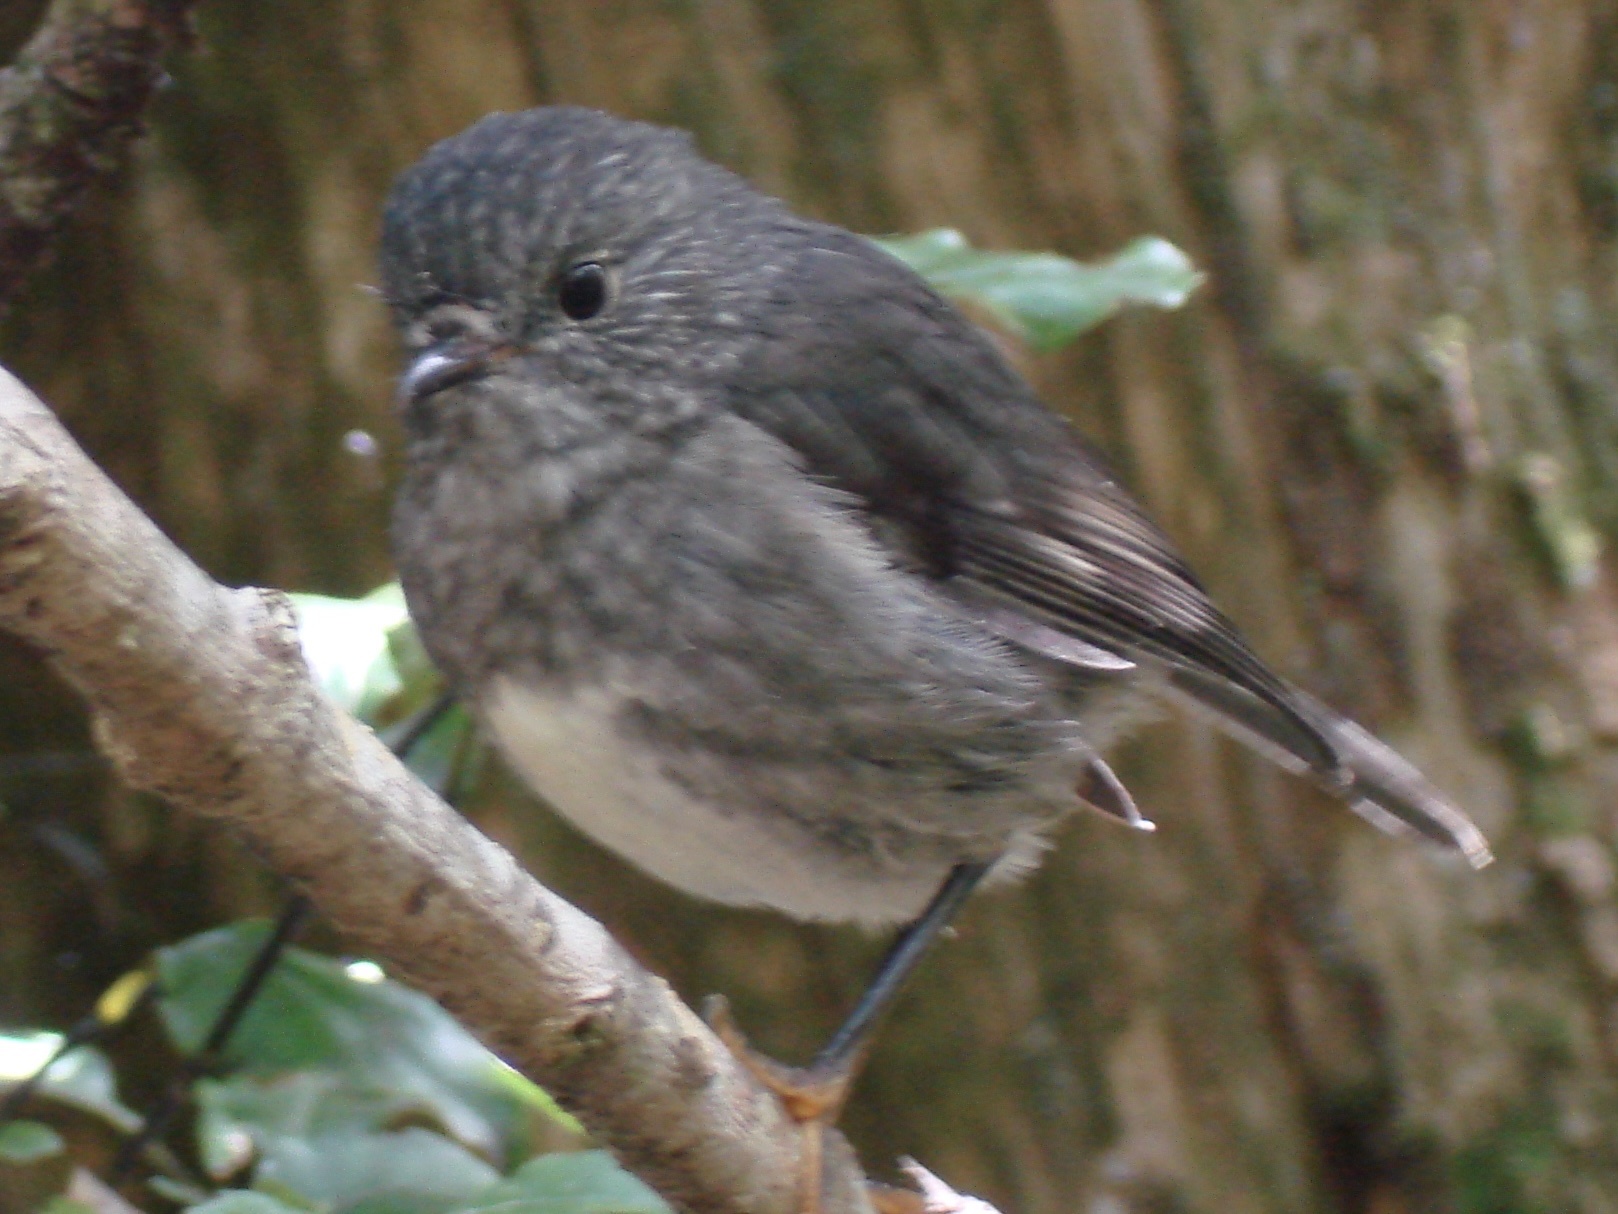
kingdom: Animalia
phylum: Chordata
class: Aves
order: Passeriformes
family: Petroicidae
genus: Petroica
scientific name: Petroica australis
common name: New zealand robin
